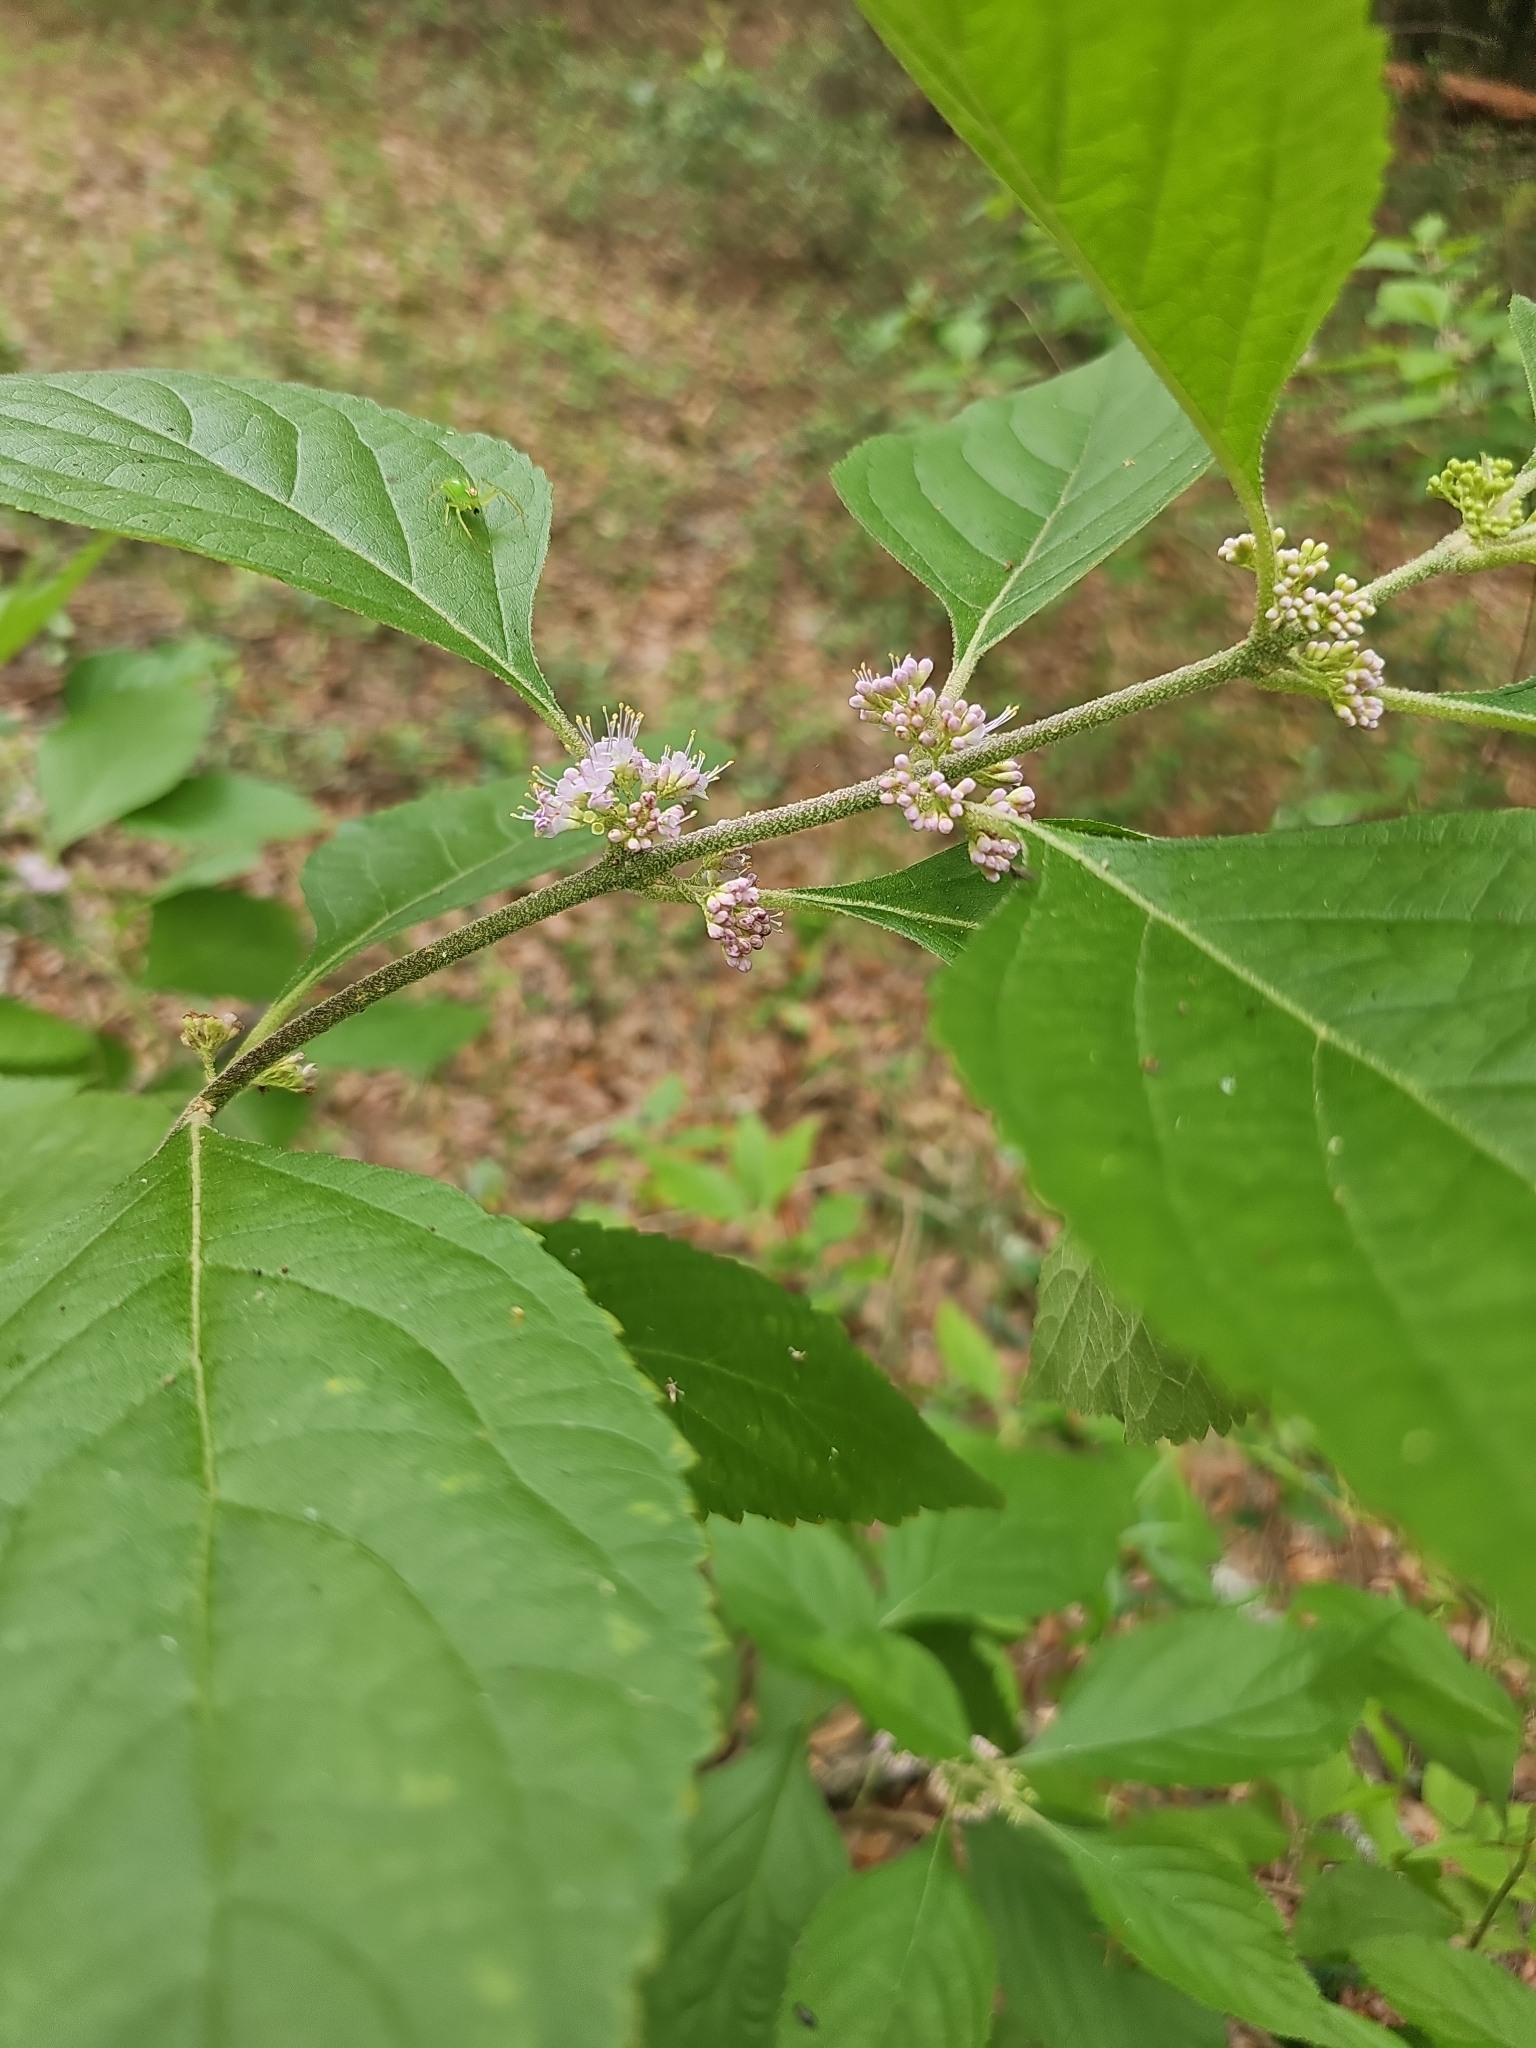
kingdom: Plantae
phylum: Tracheophyta
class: Magnoliopsida
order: Lamiales
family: Lamiaceae
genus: Callicarpa
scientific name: Callicarpa americana
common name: American beautyberry
